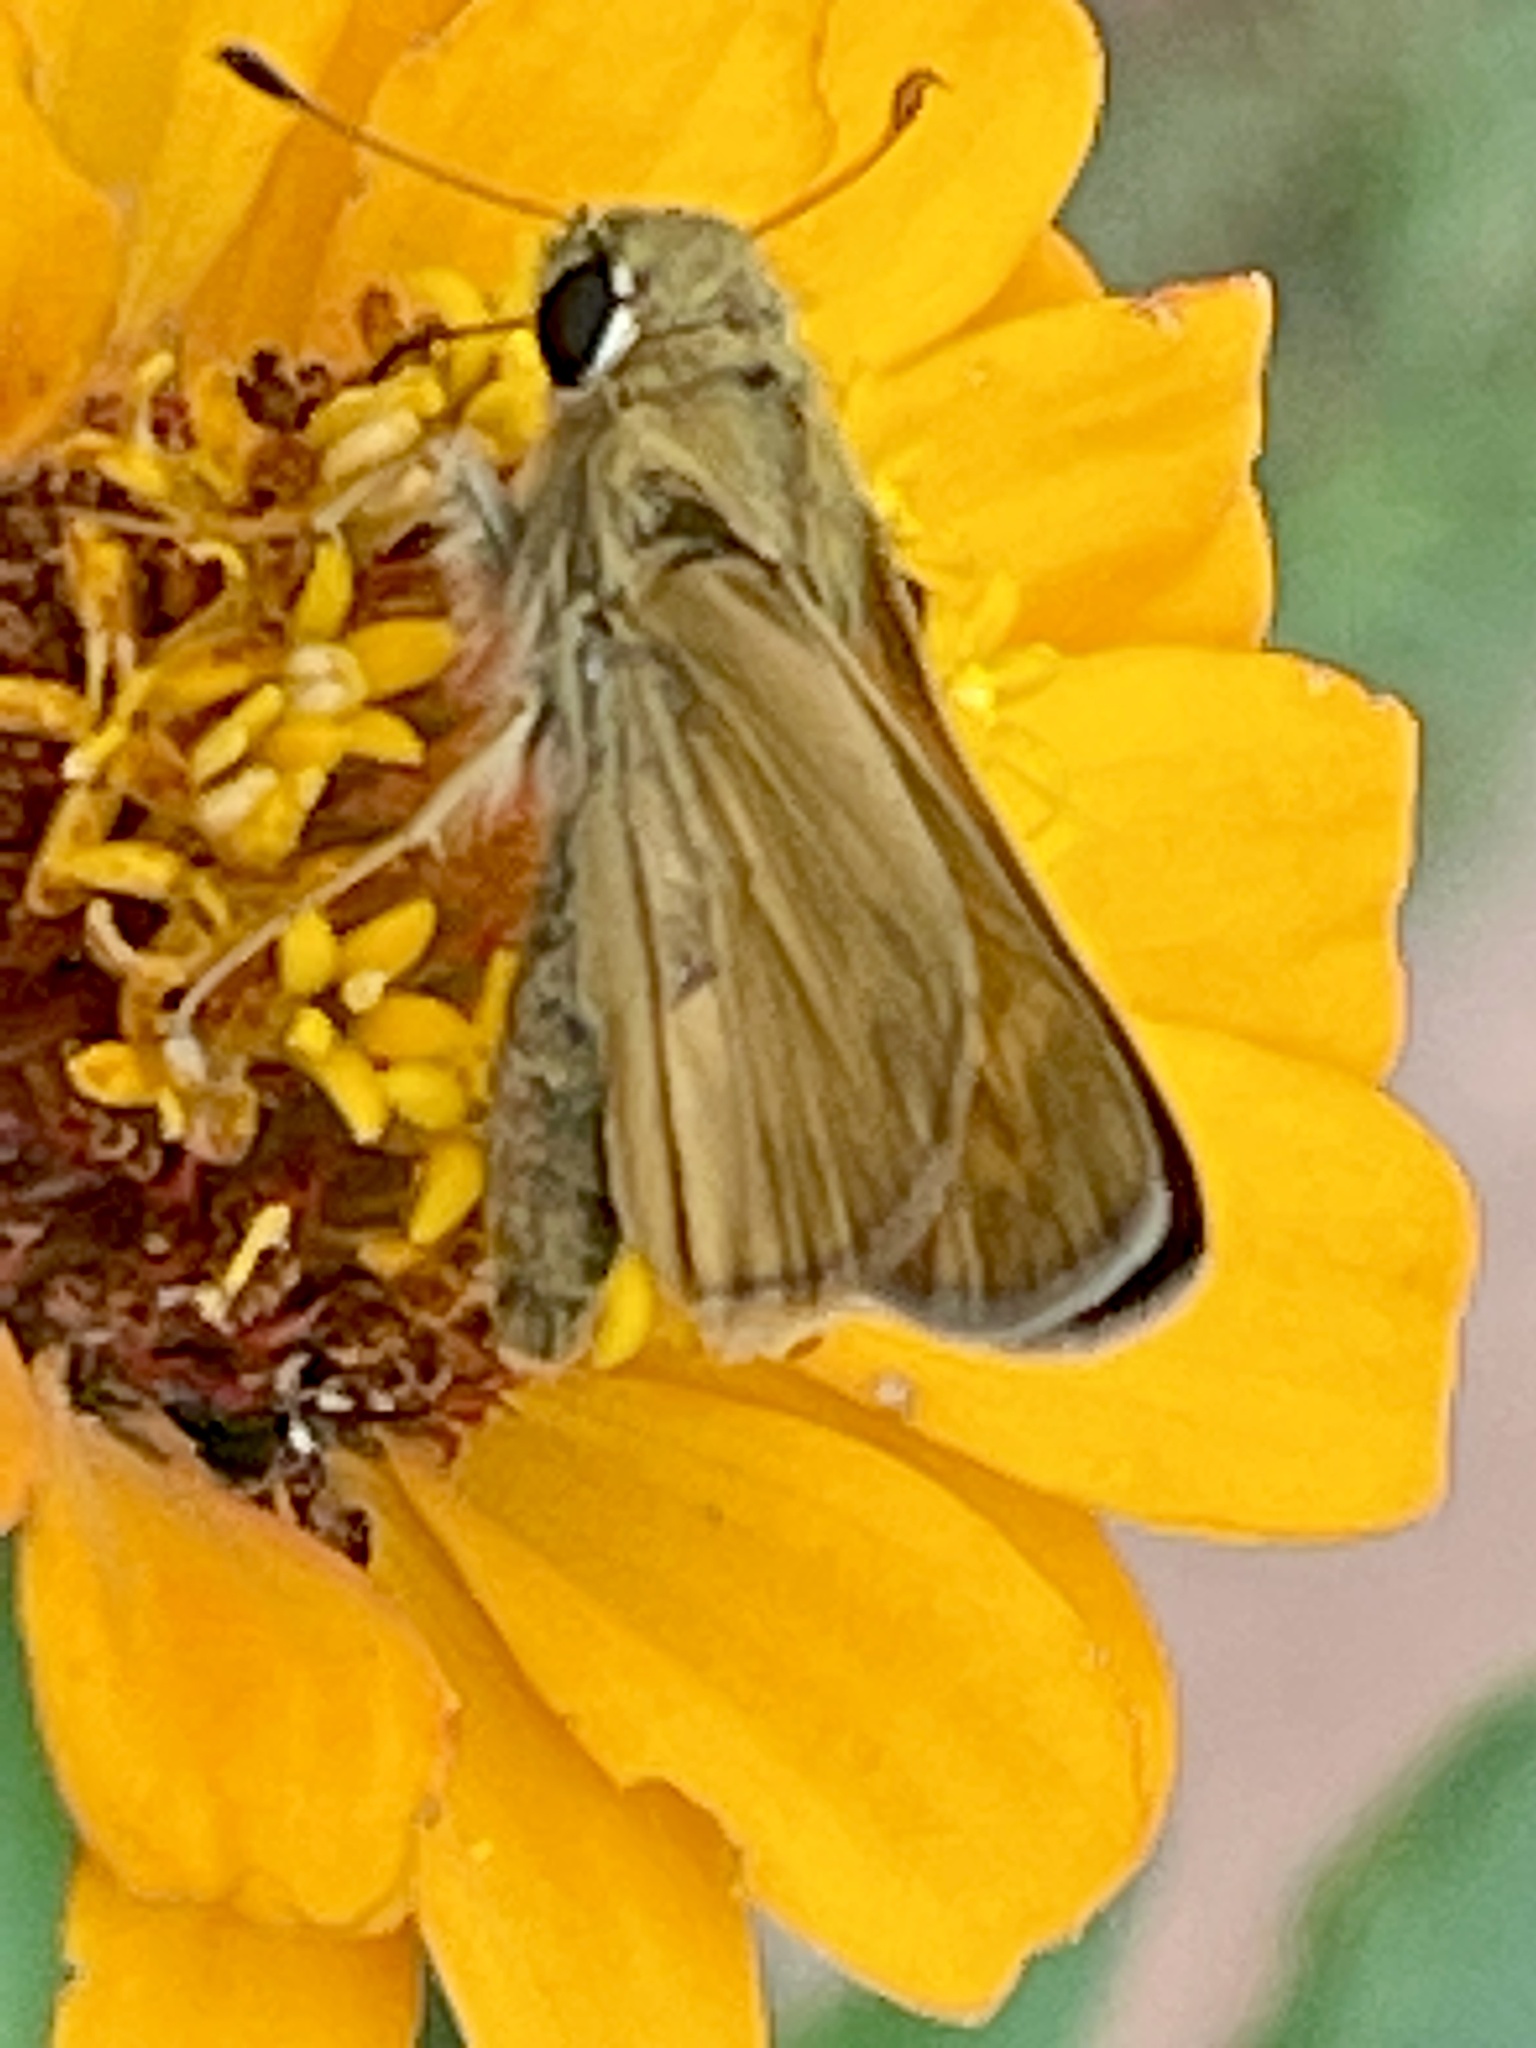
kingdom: Animalia
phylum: Arthropoda
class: Insecta
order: Lepidoptera
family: Hesperiidae
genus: Atalopedes
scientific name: Atalopedes
